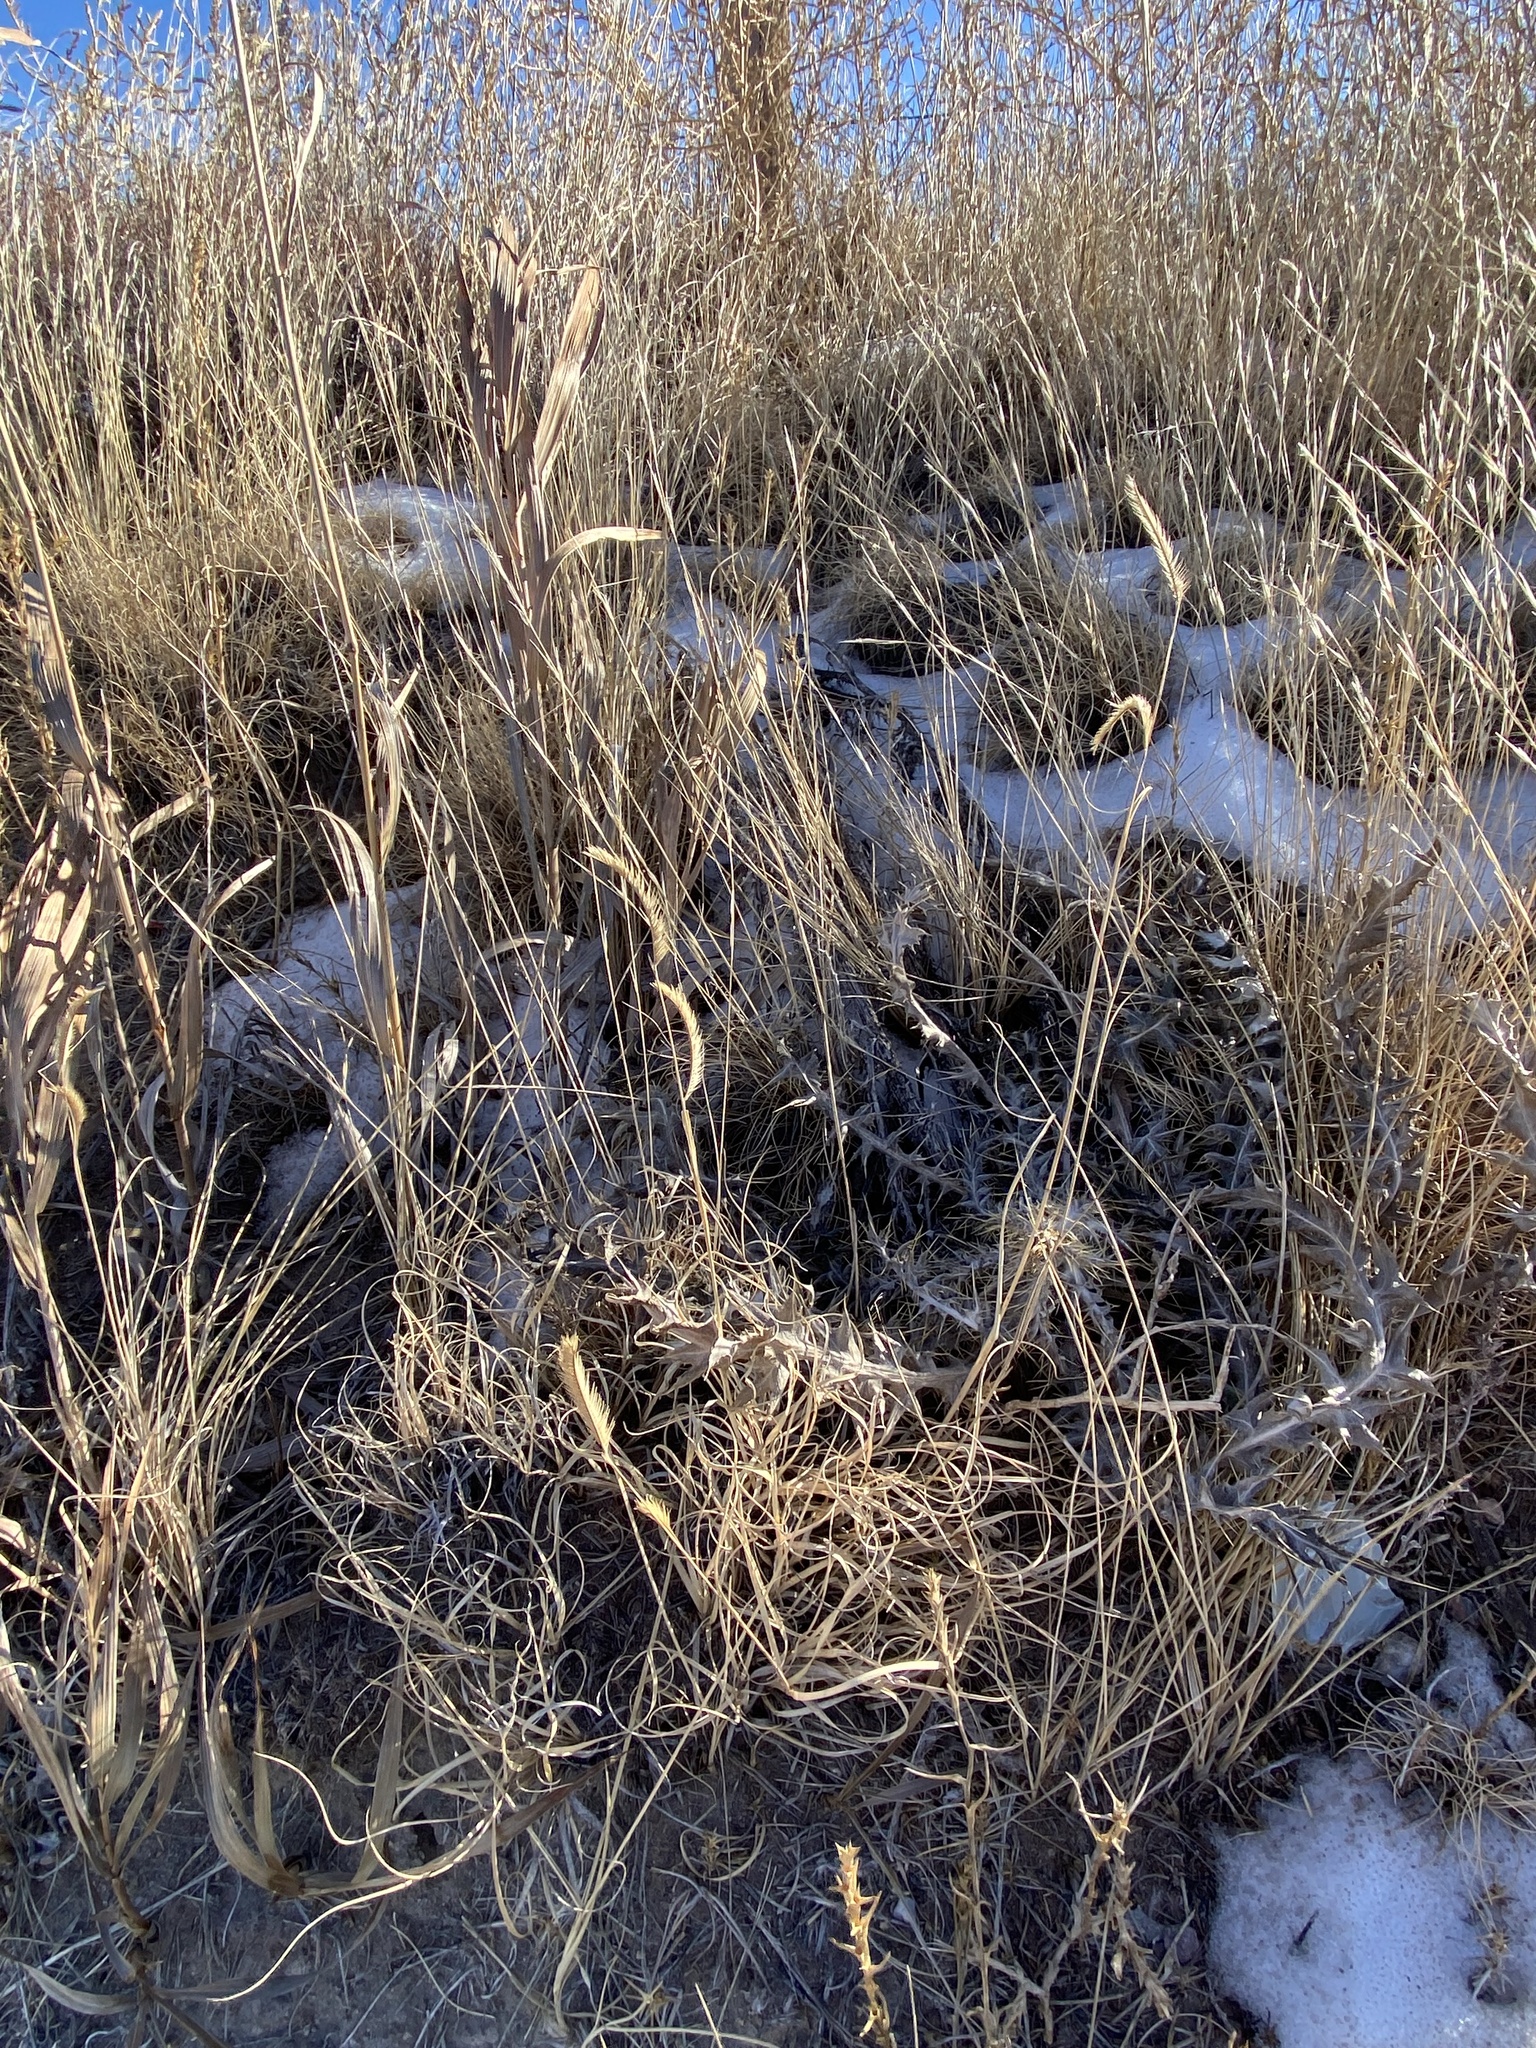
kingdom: Plantae
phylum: Tracheophyta
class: Liliopsida
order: Poales
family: Poaceae
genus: Bouteloua
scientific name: Bouteloua gracilis
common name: Blue grama
